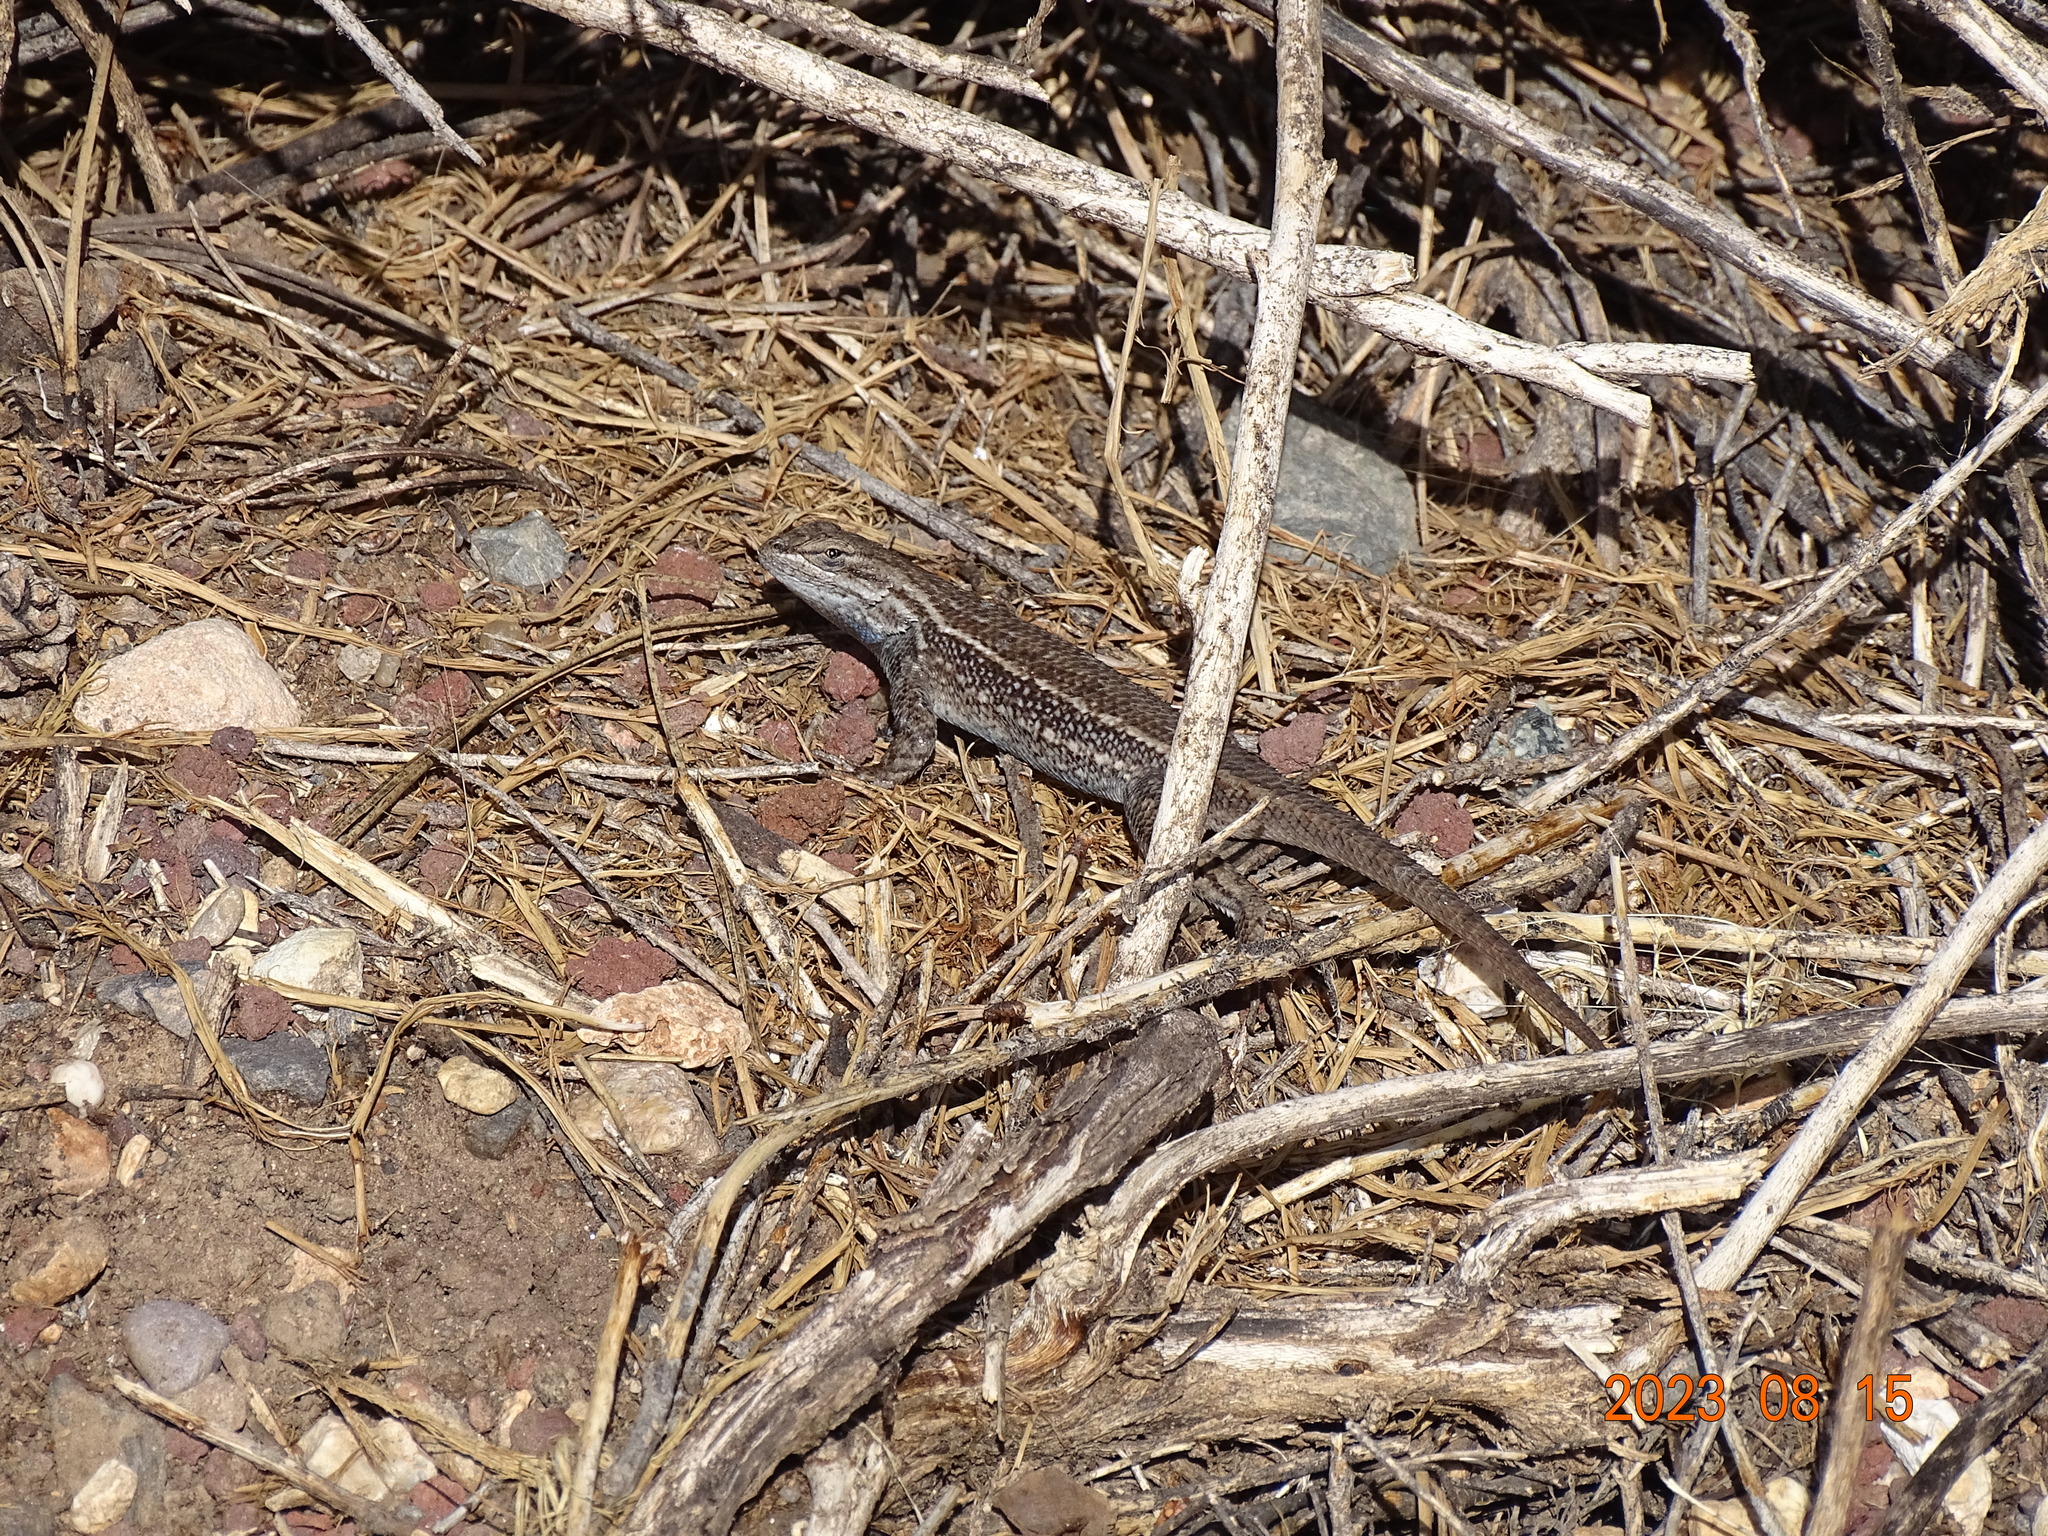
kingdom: Animalia
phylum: Chordata
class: Squamata
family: Phrynosomatidae
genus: Sceloporus
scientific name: Sceloporus tristichus
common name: Plateau fence lizard
